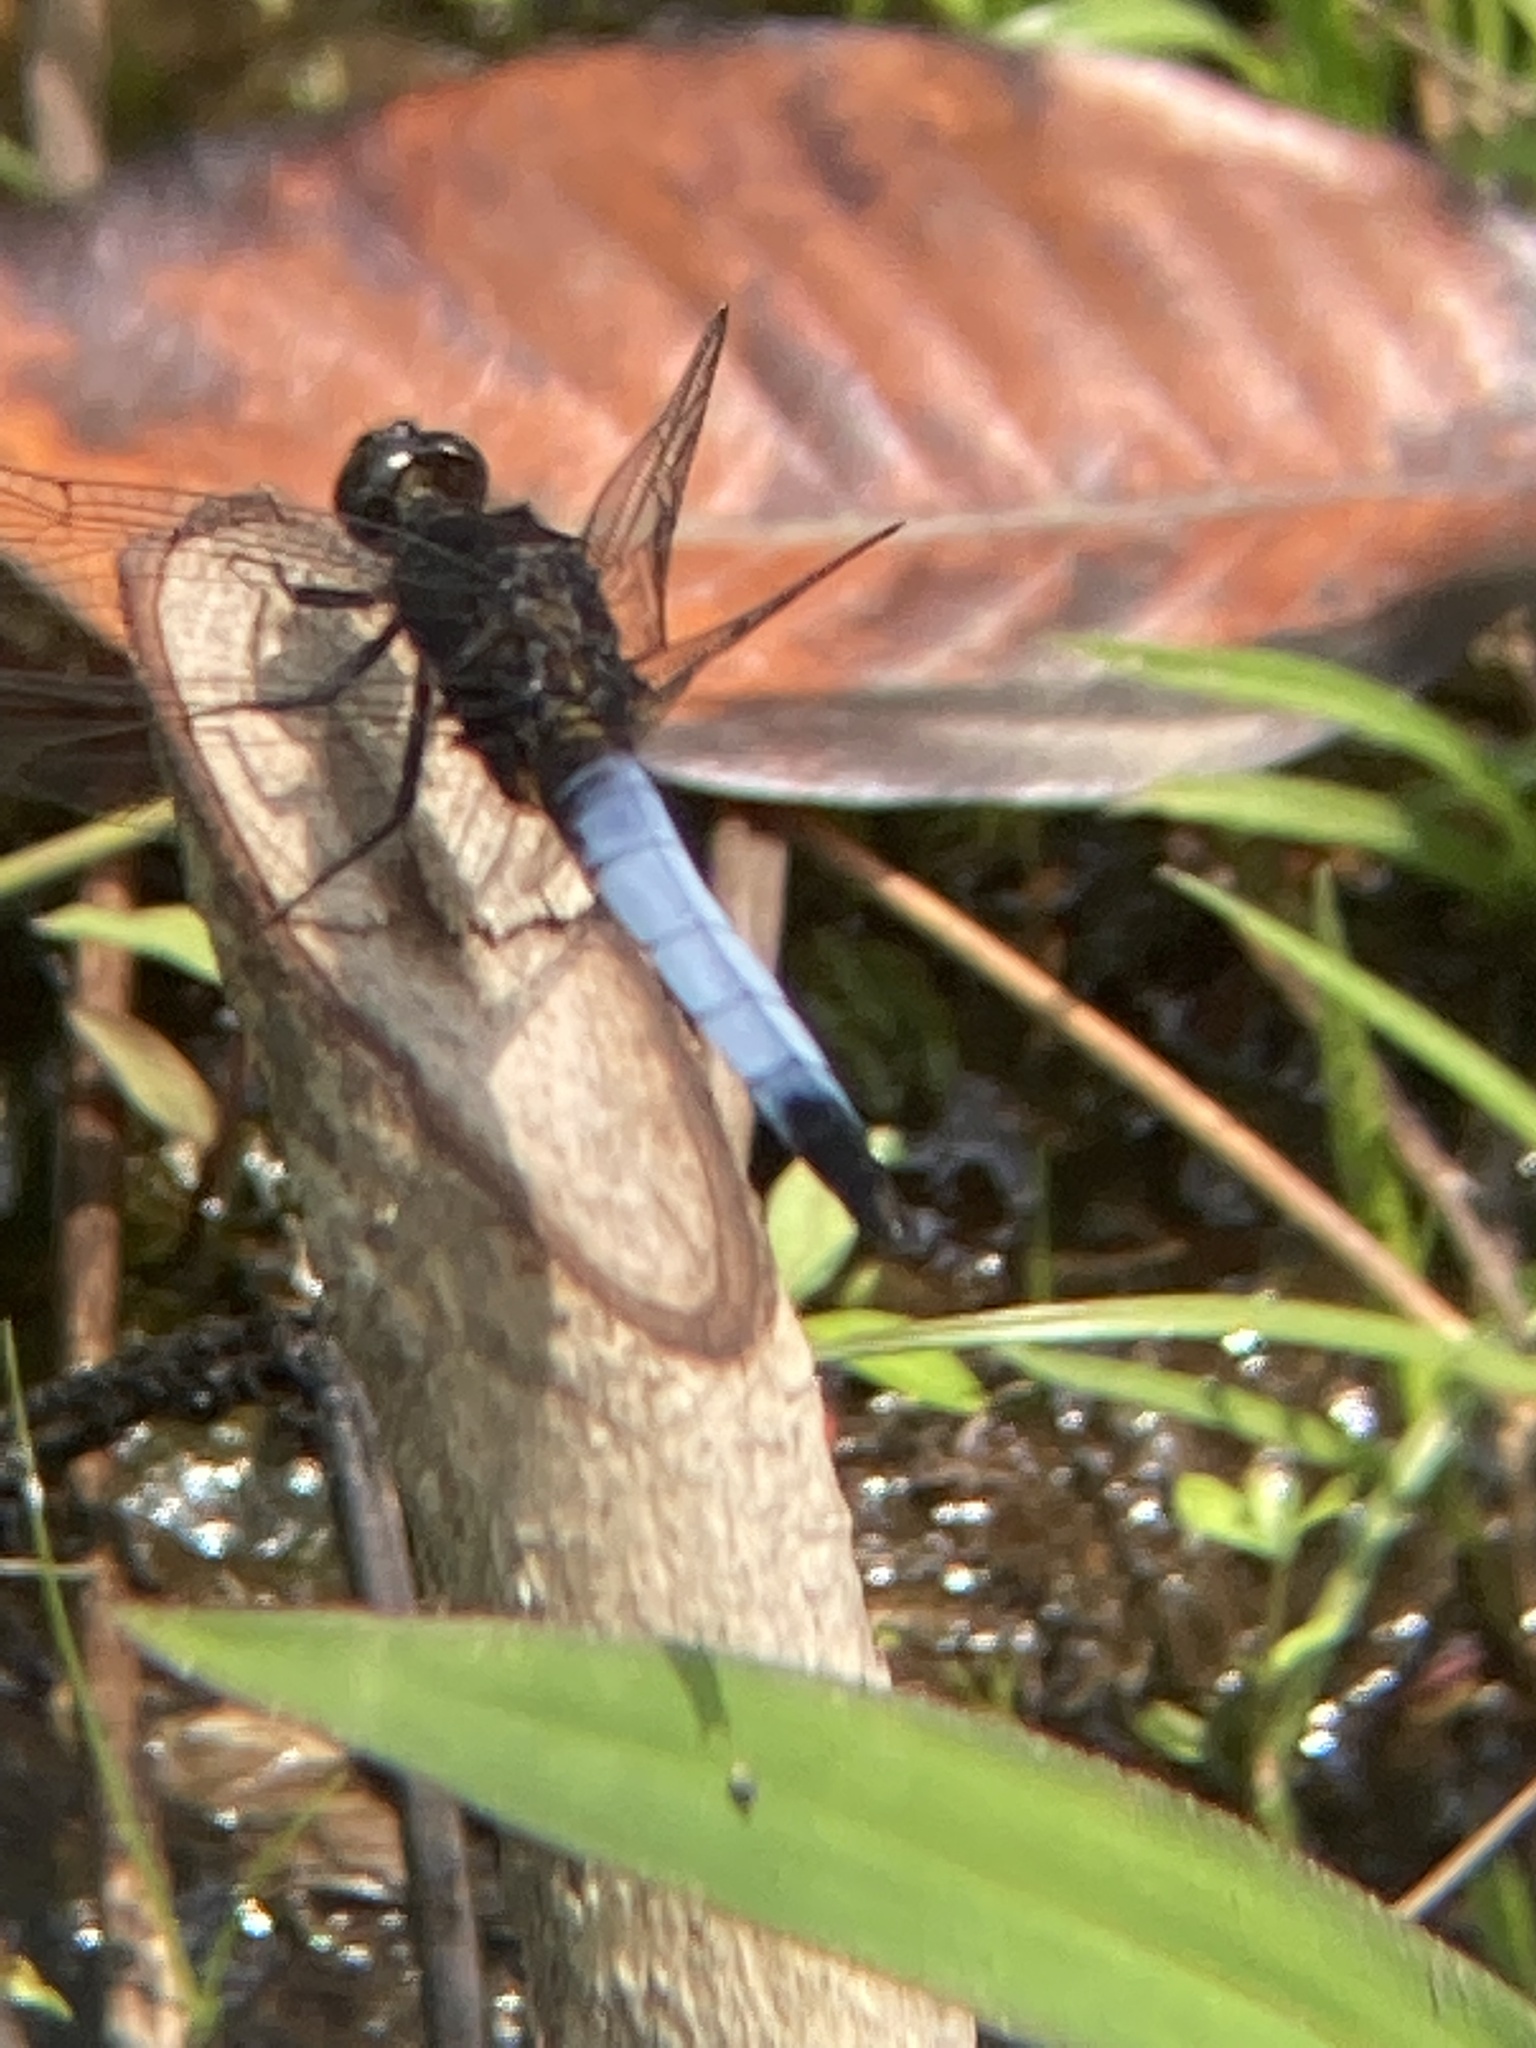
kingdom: Animalia
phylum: Arthropoda
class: Insecta
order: Odonata
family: Libellulidae
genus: Orthetrum
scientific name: Orthetrum triangulare
